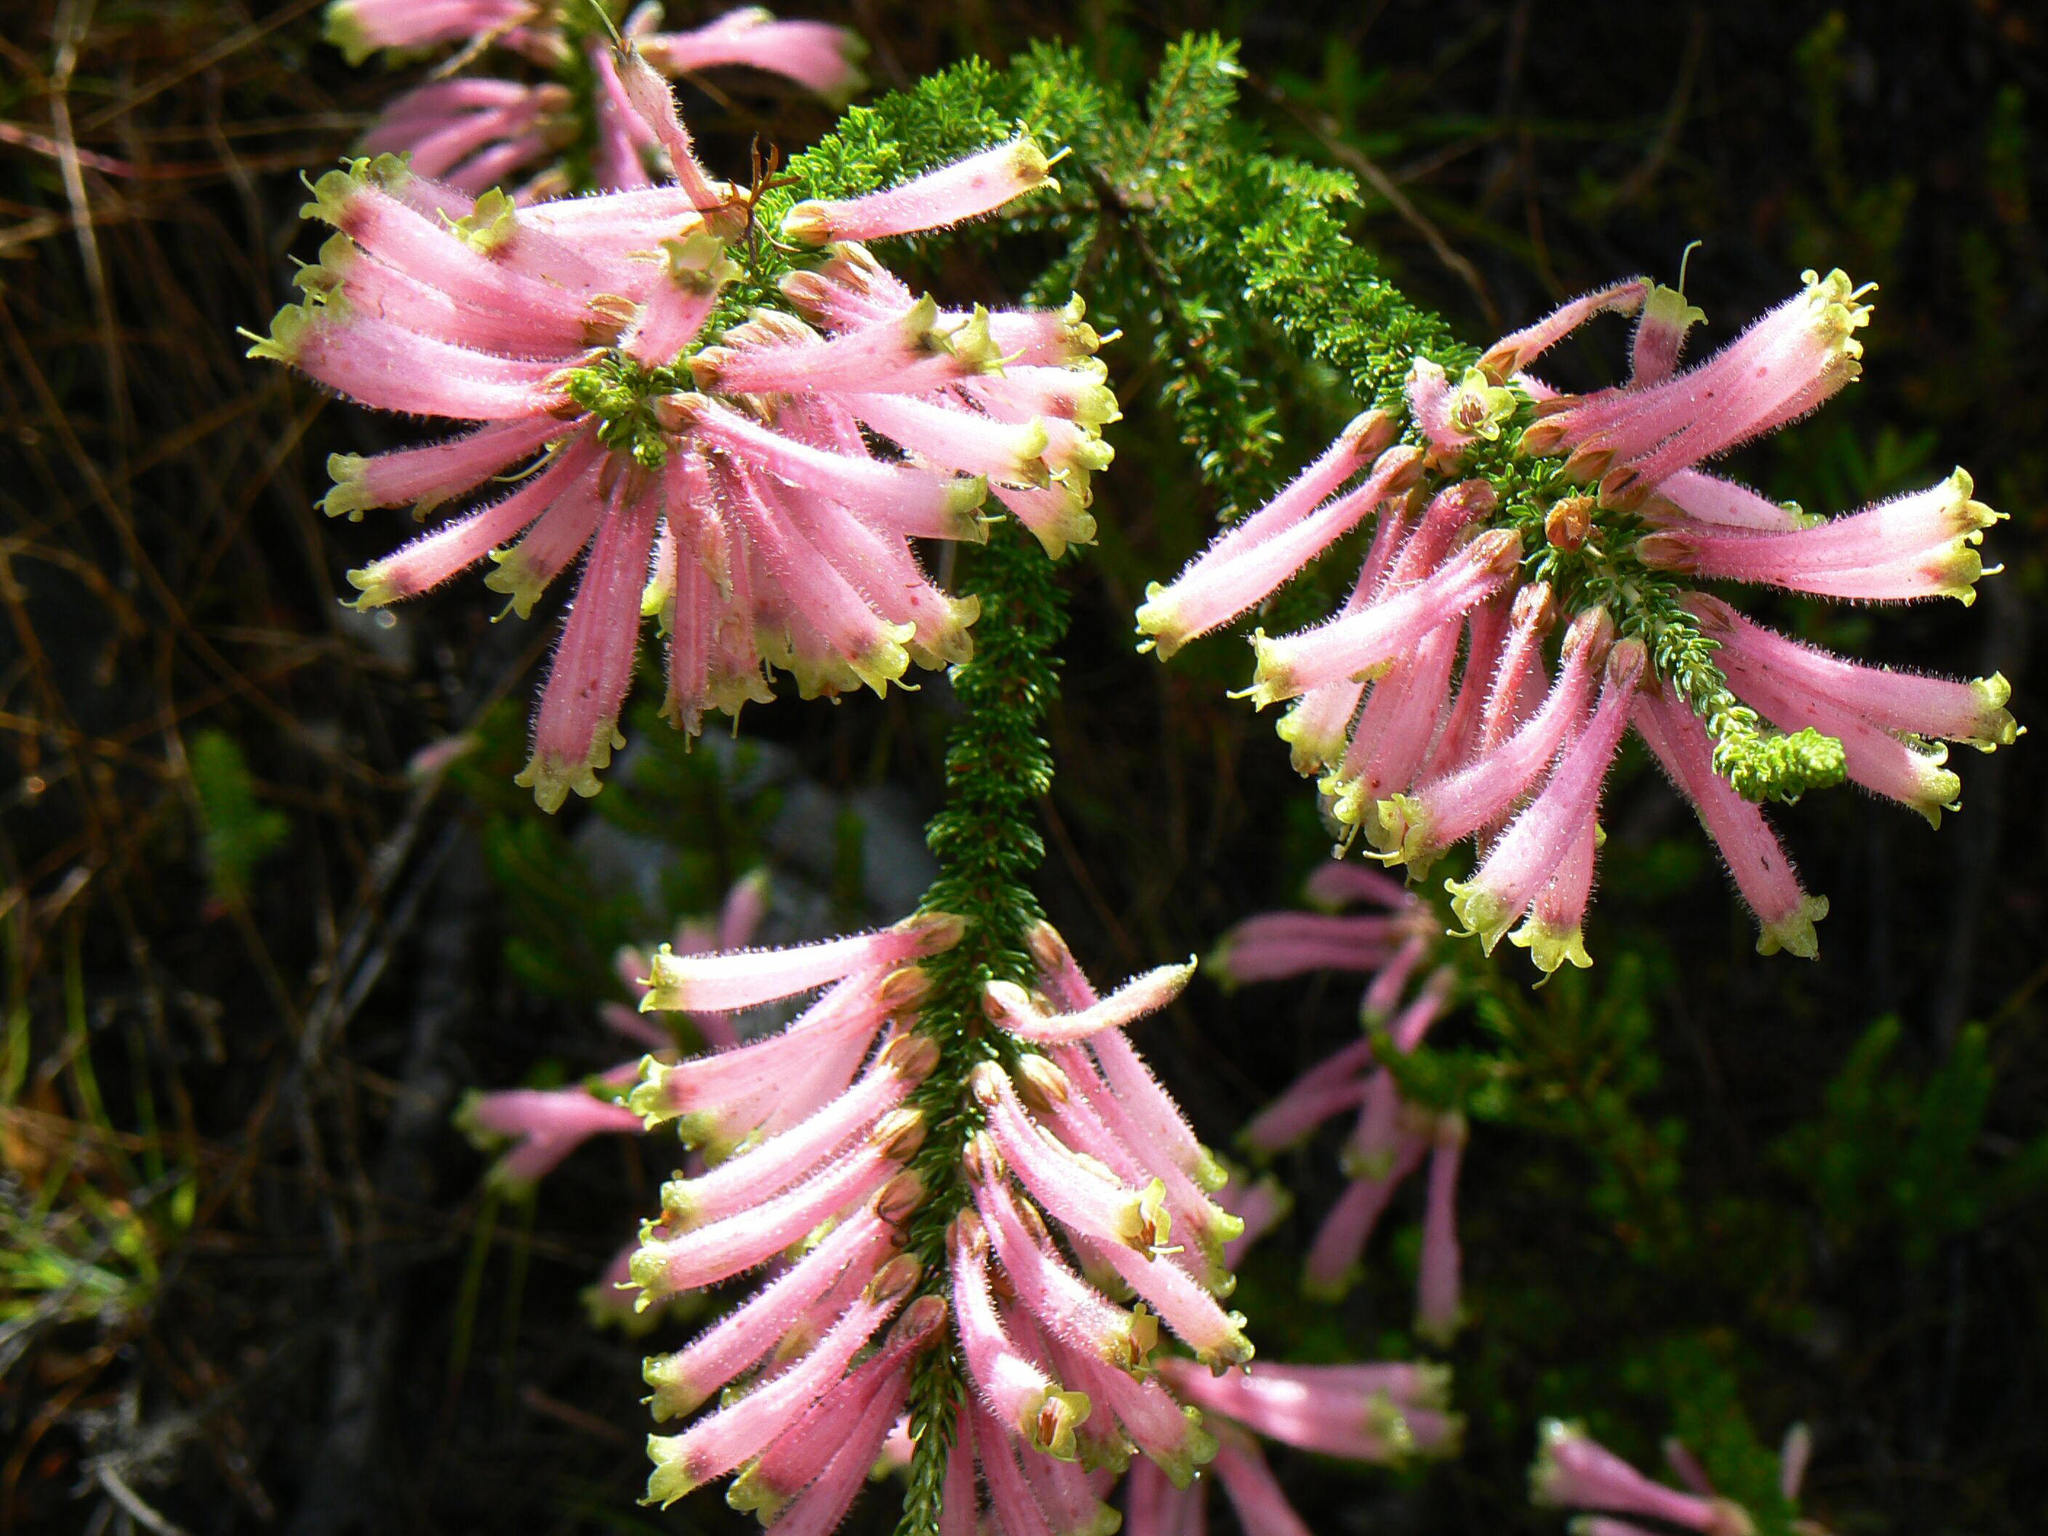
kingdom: Plantae
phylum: Tracheophyta
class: Magnoliopsida
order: Ericales
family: Ericaceae
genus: Erica
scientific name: Erica densifolia
